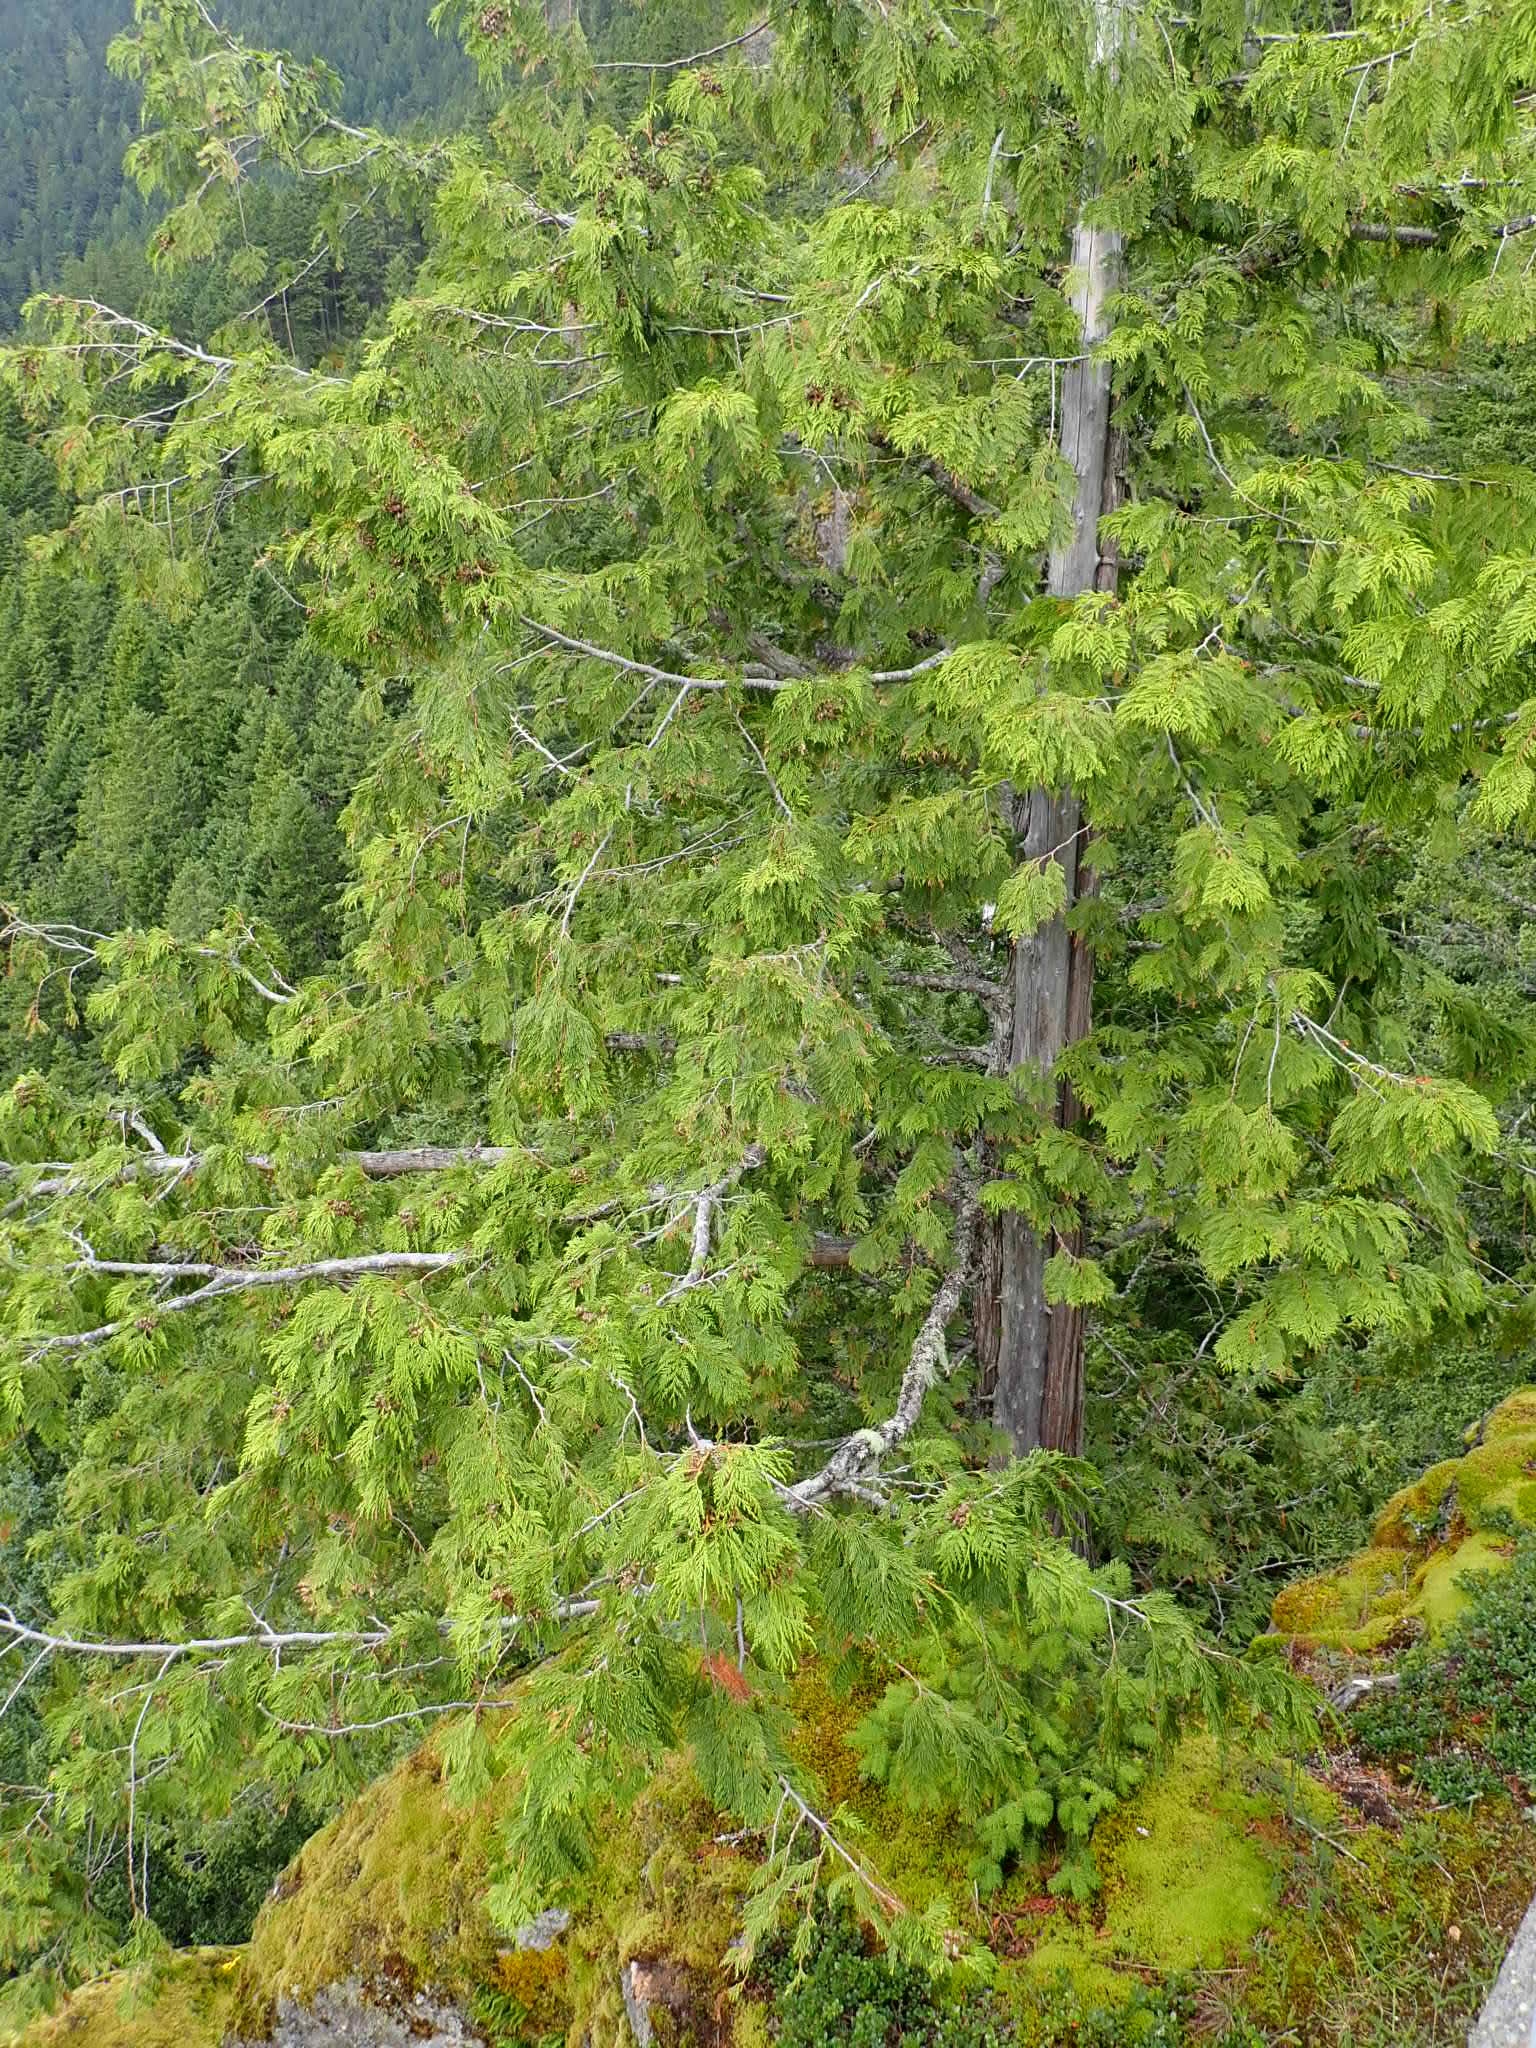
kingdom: Plantae
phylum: Tracheophyta
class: Pinopsida
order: Pinales
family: Cupressaceae
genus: Xanthocyparis
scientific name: Xanthocyparis nootkatensis
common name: Nootka cypress
